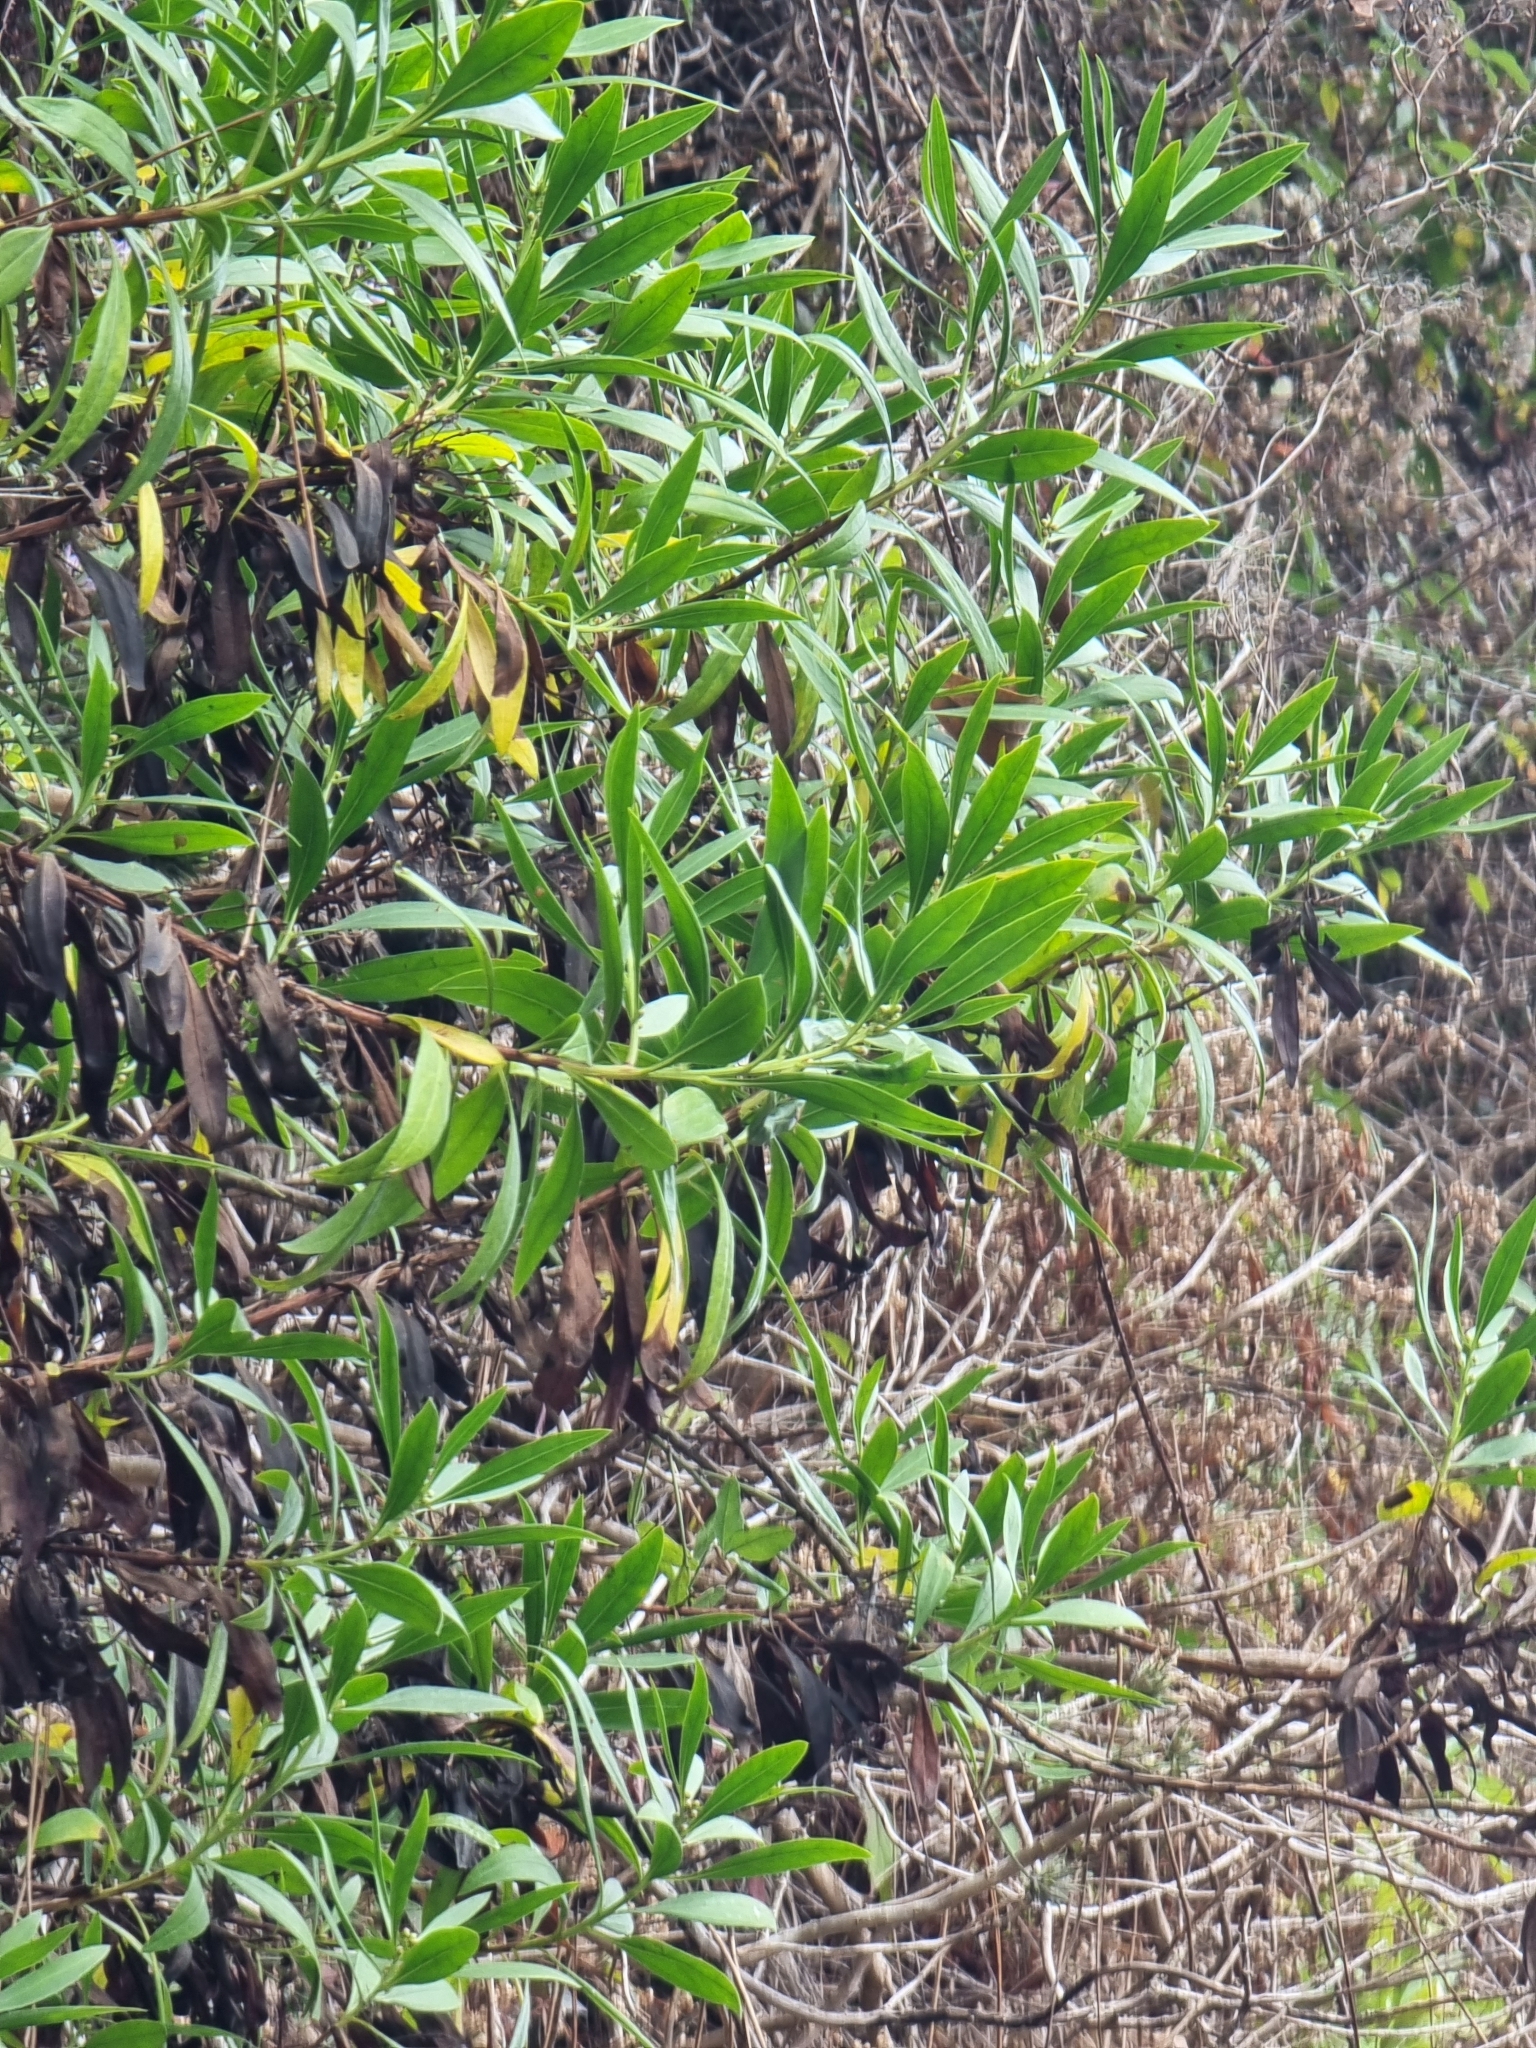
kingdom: Plantae
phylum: Tracheophyta
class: Magnoliopsida
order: Lamiales
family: Plantaginaceae
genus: Globularia
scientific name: Globularia salicina
